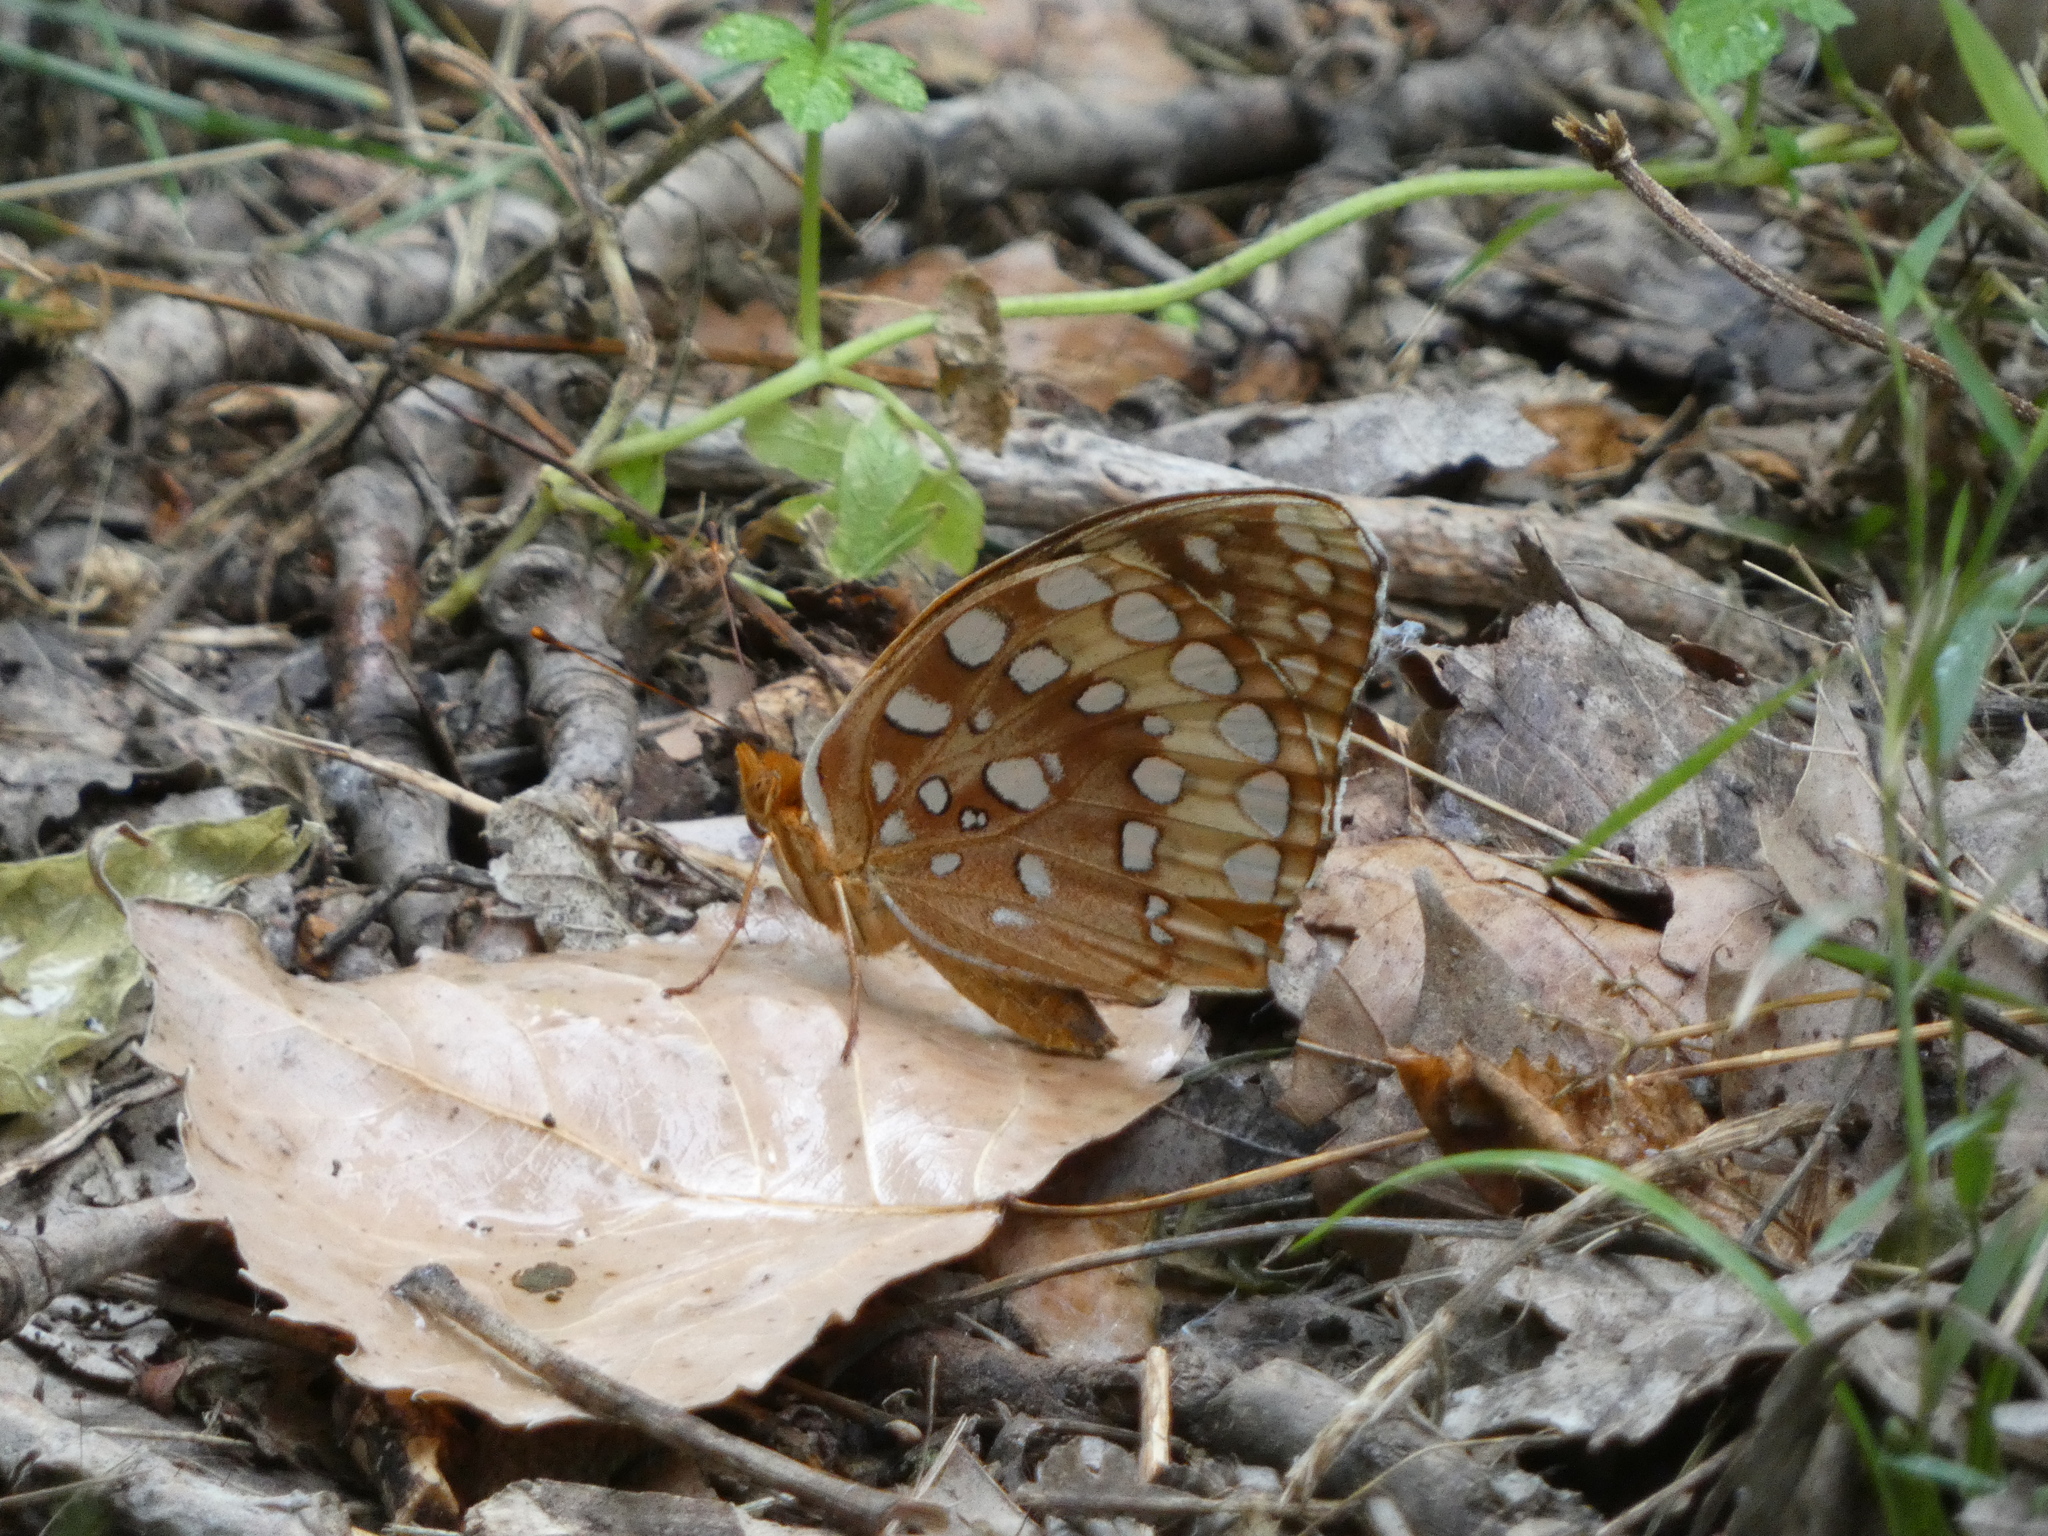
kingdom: Animalia
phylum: Arthropoda
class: Insecta
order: Lepidoptera
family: Nymphalidae
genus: Speyeria
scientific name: Speyeria cybele
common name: Great spangled fritillary
